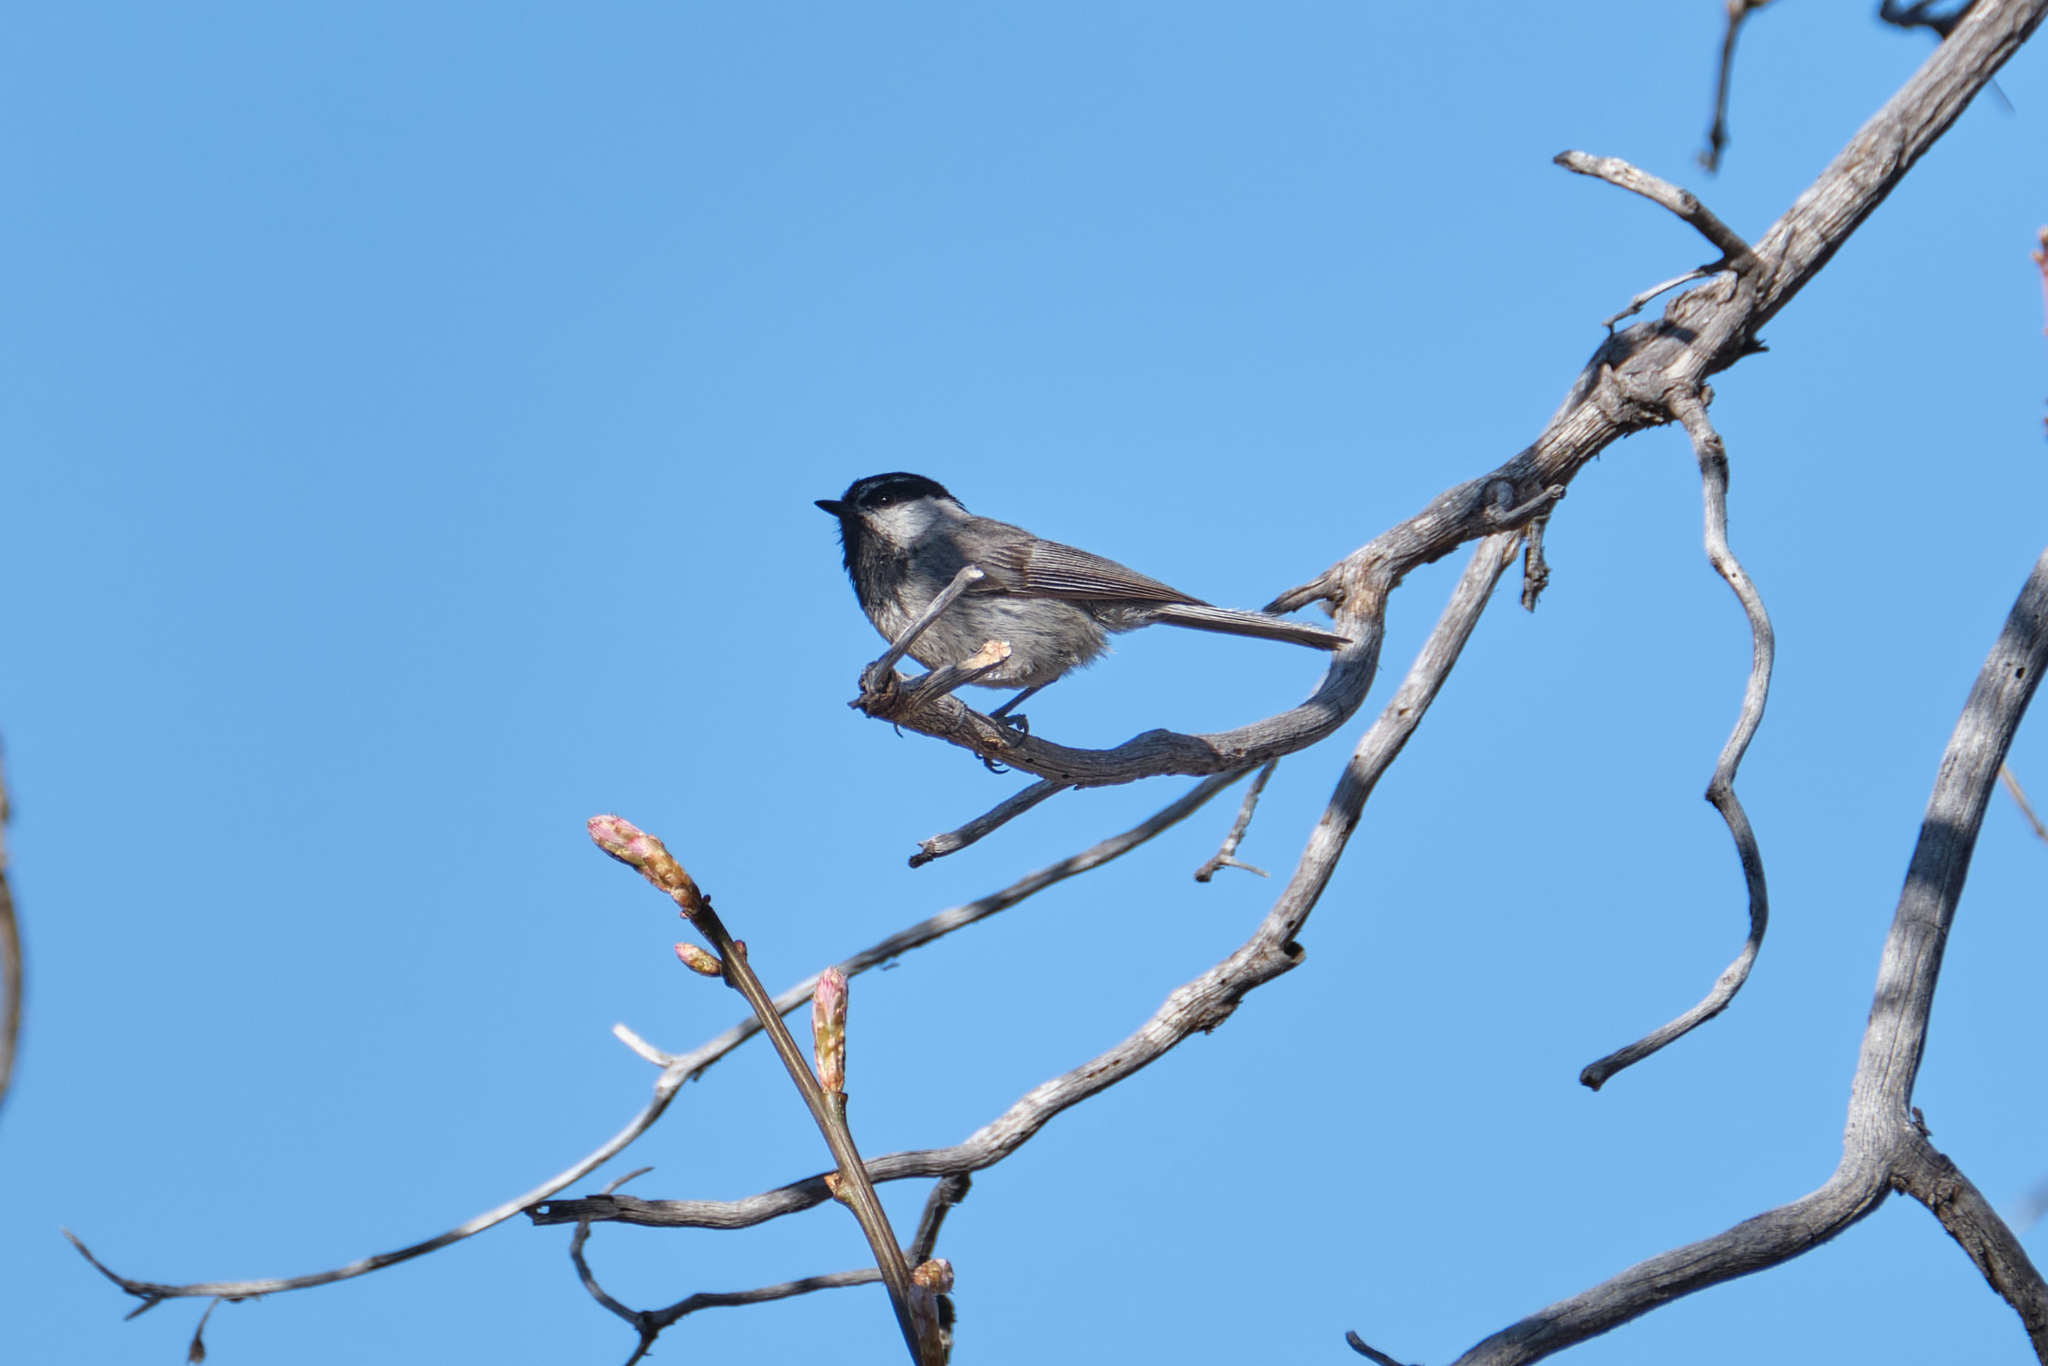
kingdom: Animalia
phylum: Chordata
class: Aves
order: Passeriformes
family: Paridae
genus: Poecile
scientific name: Poecile gambeli
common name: Mountain chickadee
